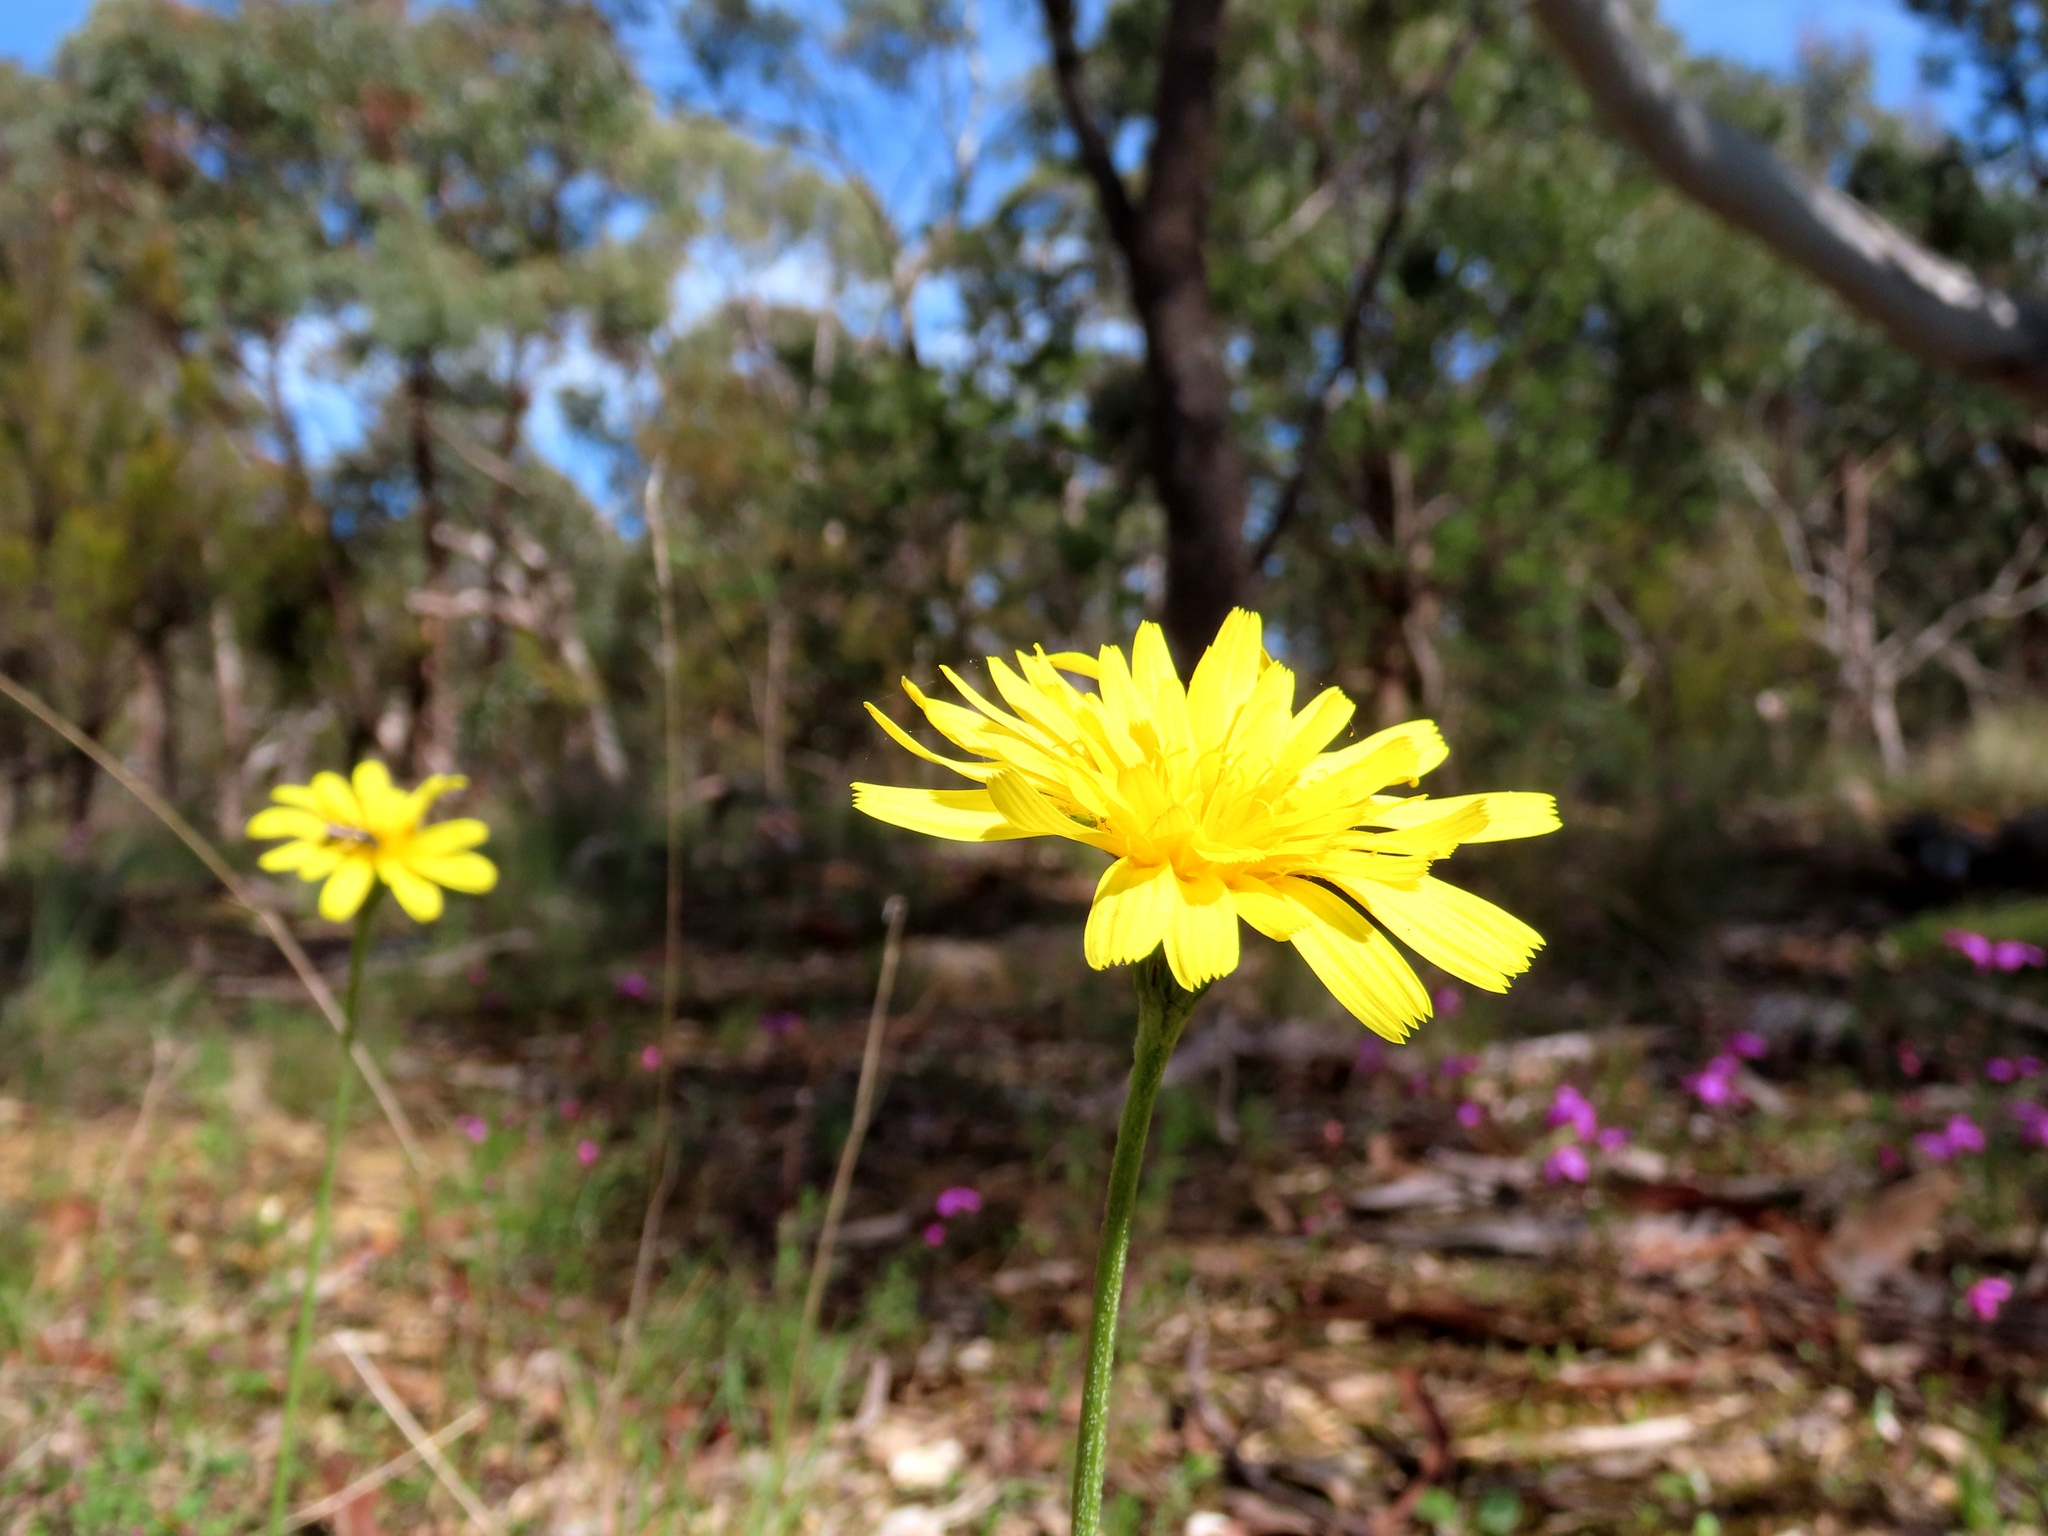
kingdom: Plantae
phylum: Tracheophyta
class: Magnoliopsida
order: Asterales
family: Asteraceae
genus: Microseris
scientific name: Microseris lanceolata
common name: Yam daisy
